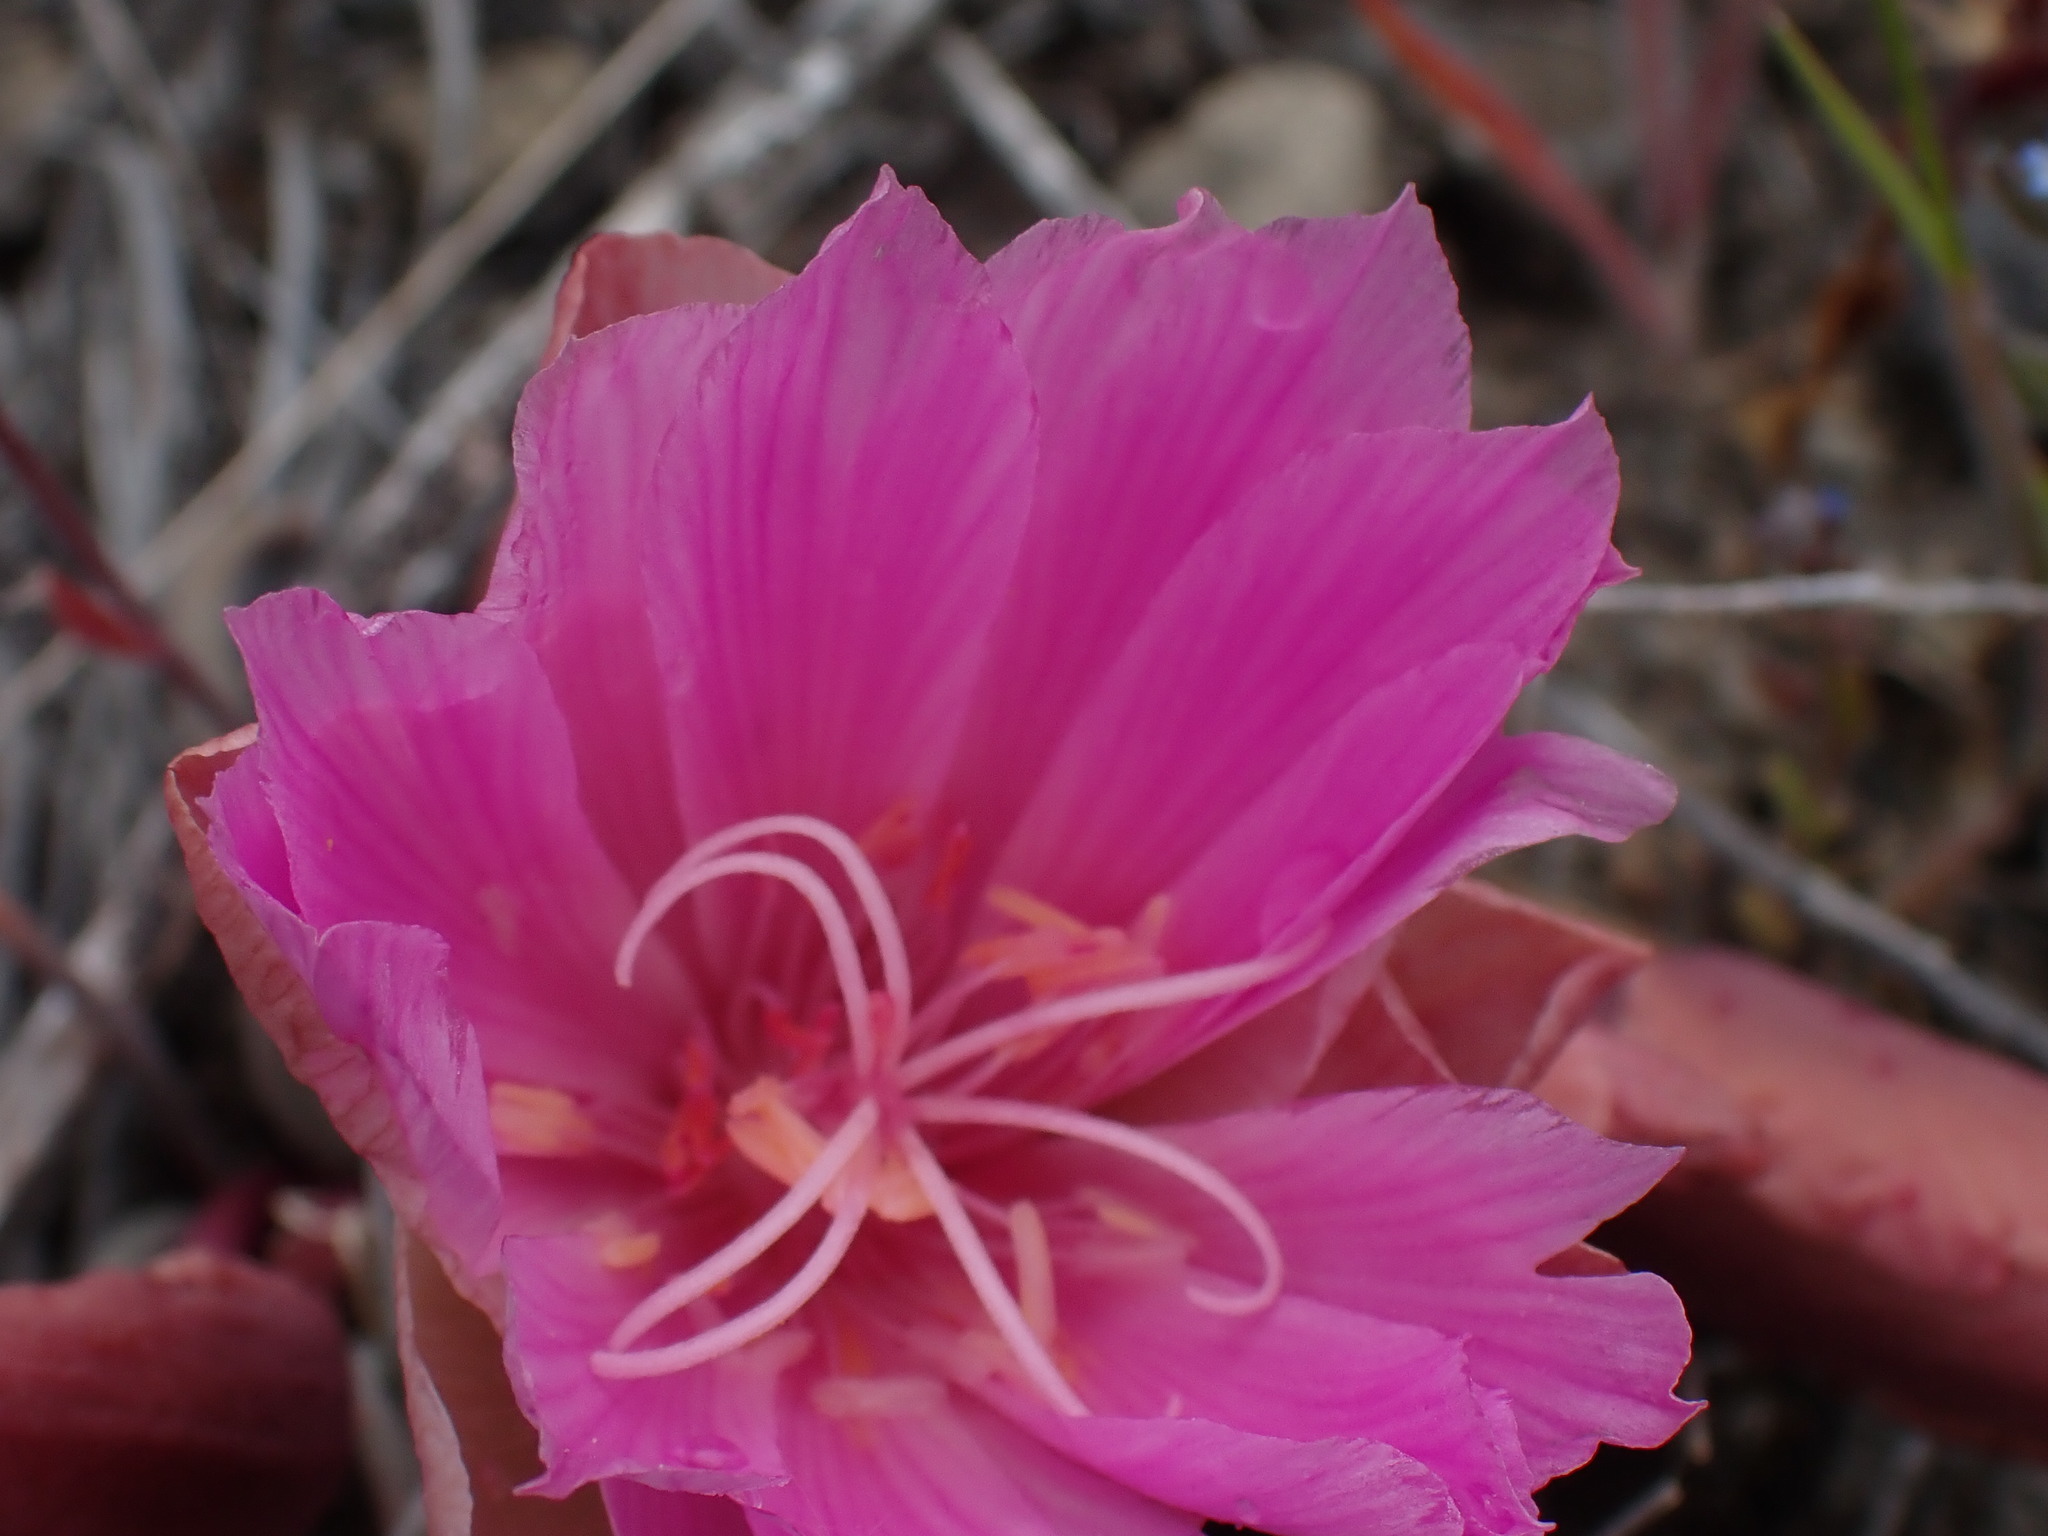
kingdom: Plantae
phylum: Tracheophyta
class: Magnoliopsida
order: Caryophyllales
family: Montiaceae
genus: Lewisia
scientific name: Lewisia rediviva
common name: Bitter-root
